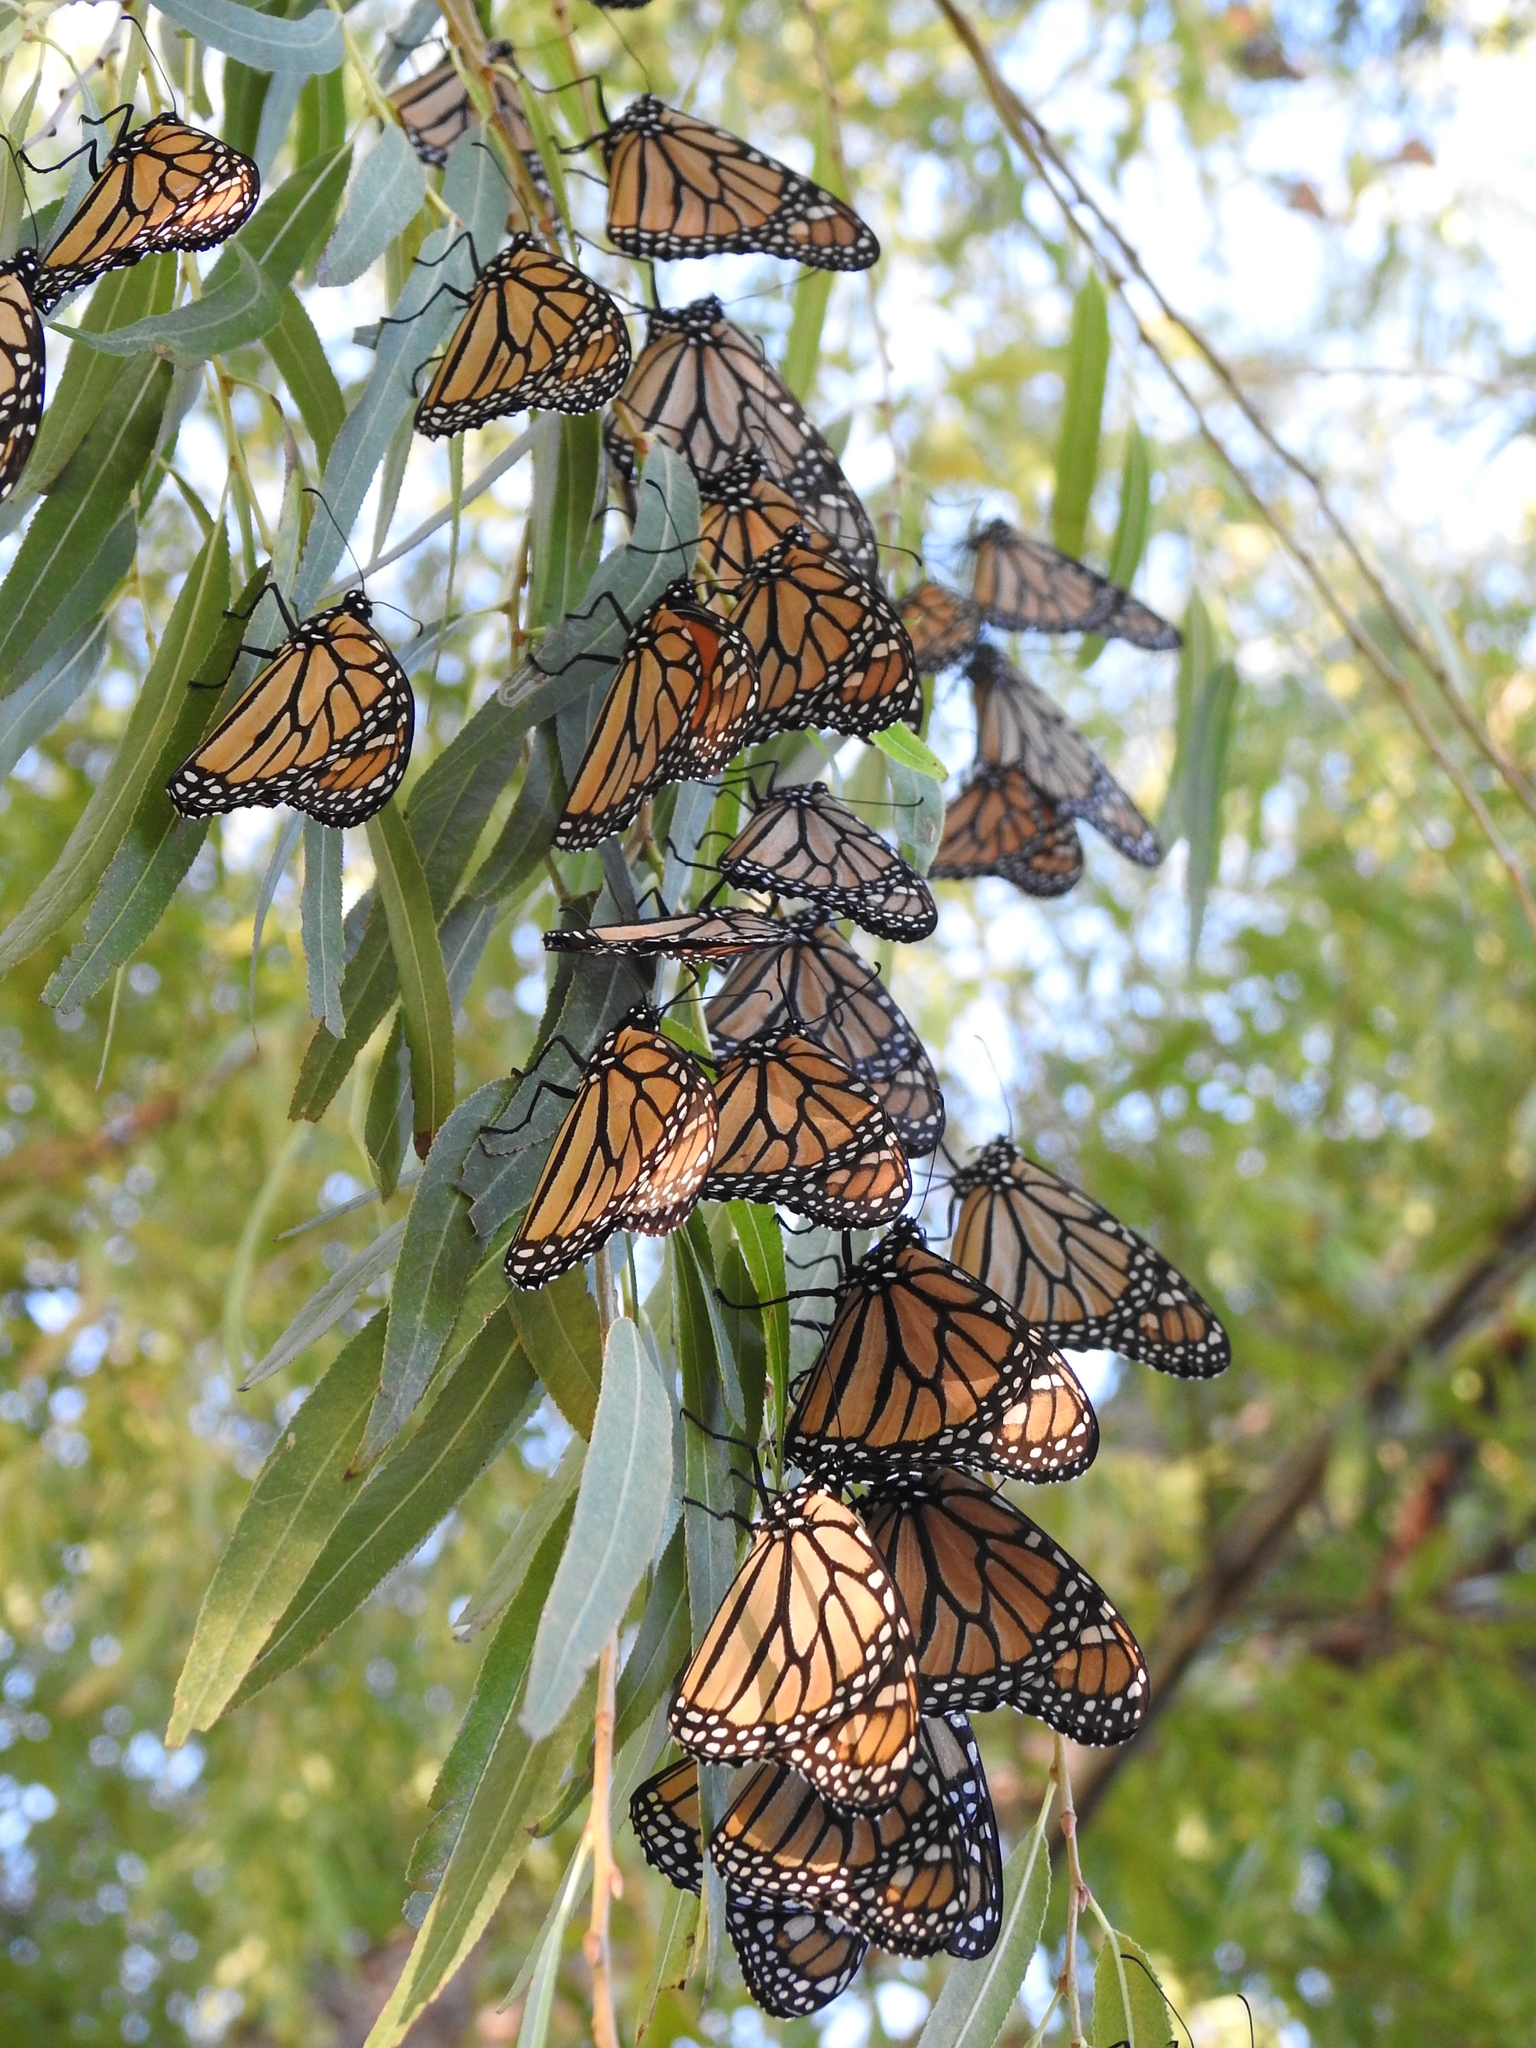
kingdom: Animalia
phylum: Arthropoda
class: Insecta
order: Lepidoptera
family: Nymphalidae
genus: Danaus
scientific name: Danaus plexippus
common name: Monarch
